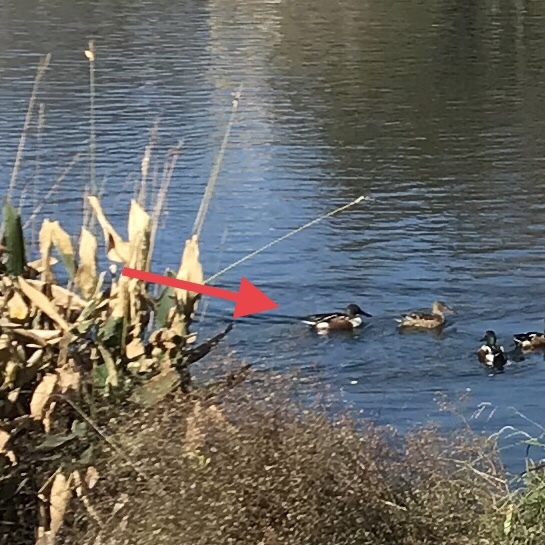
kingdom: Animalia
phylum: Chordata
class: Aves
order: Anseriformes
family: Anatidae
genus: Spatula
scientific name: Spatula clypeata
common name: Northern shoveler
